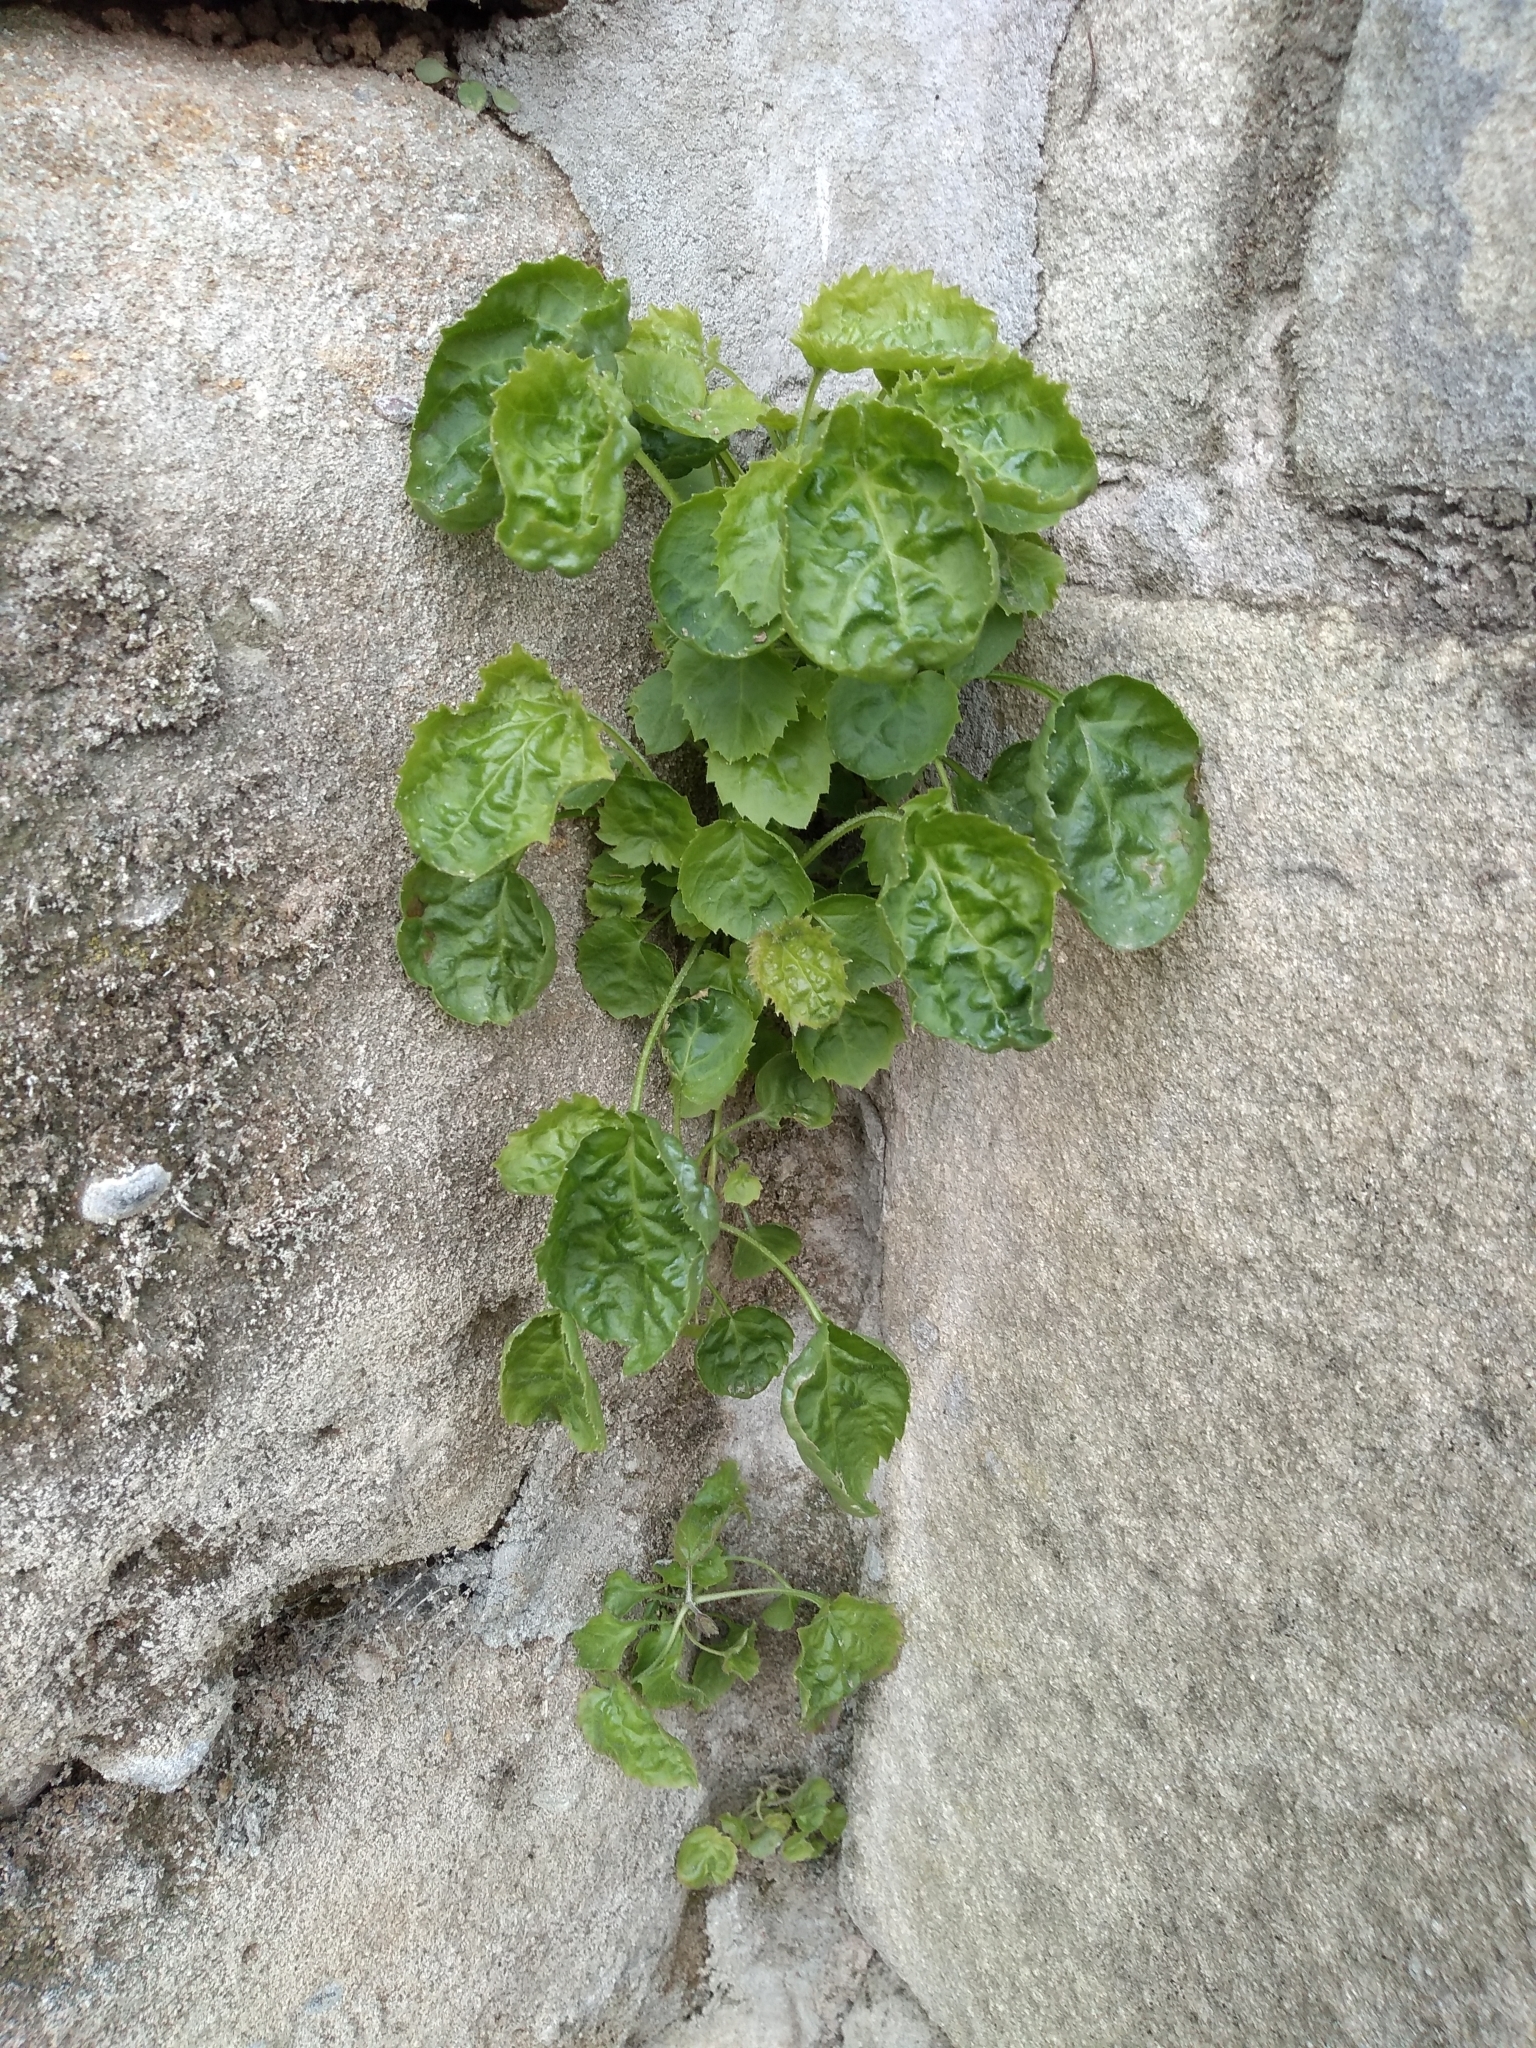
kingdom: Plantae
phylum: Tracheophyta
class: Magnoliopsida
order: Asterales
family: Campanulaceae
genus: Campanula
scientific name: Campanula poscharskyana
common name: Trailing bellflower
